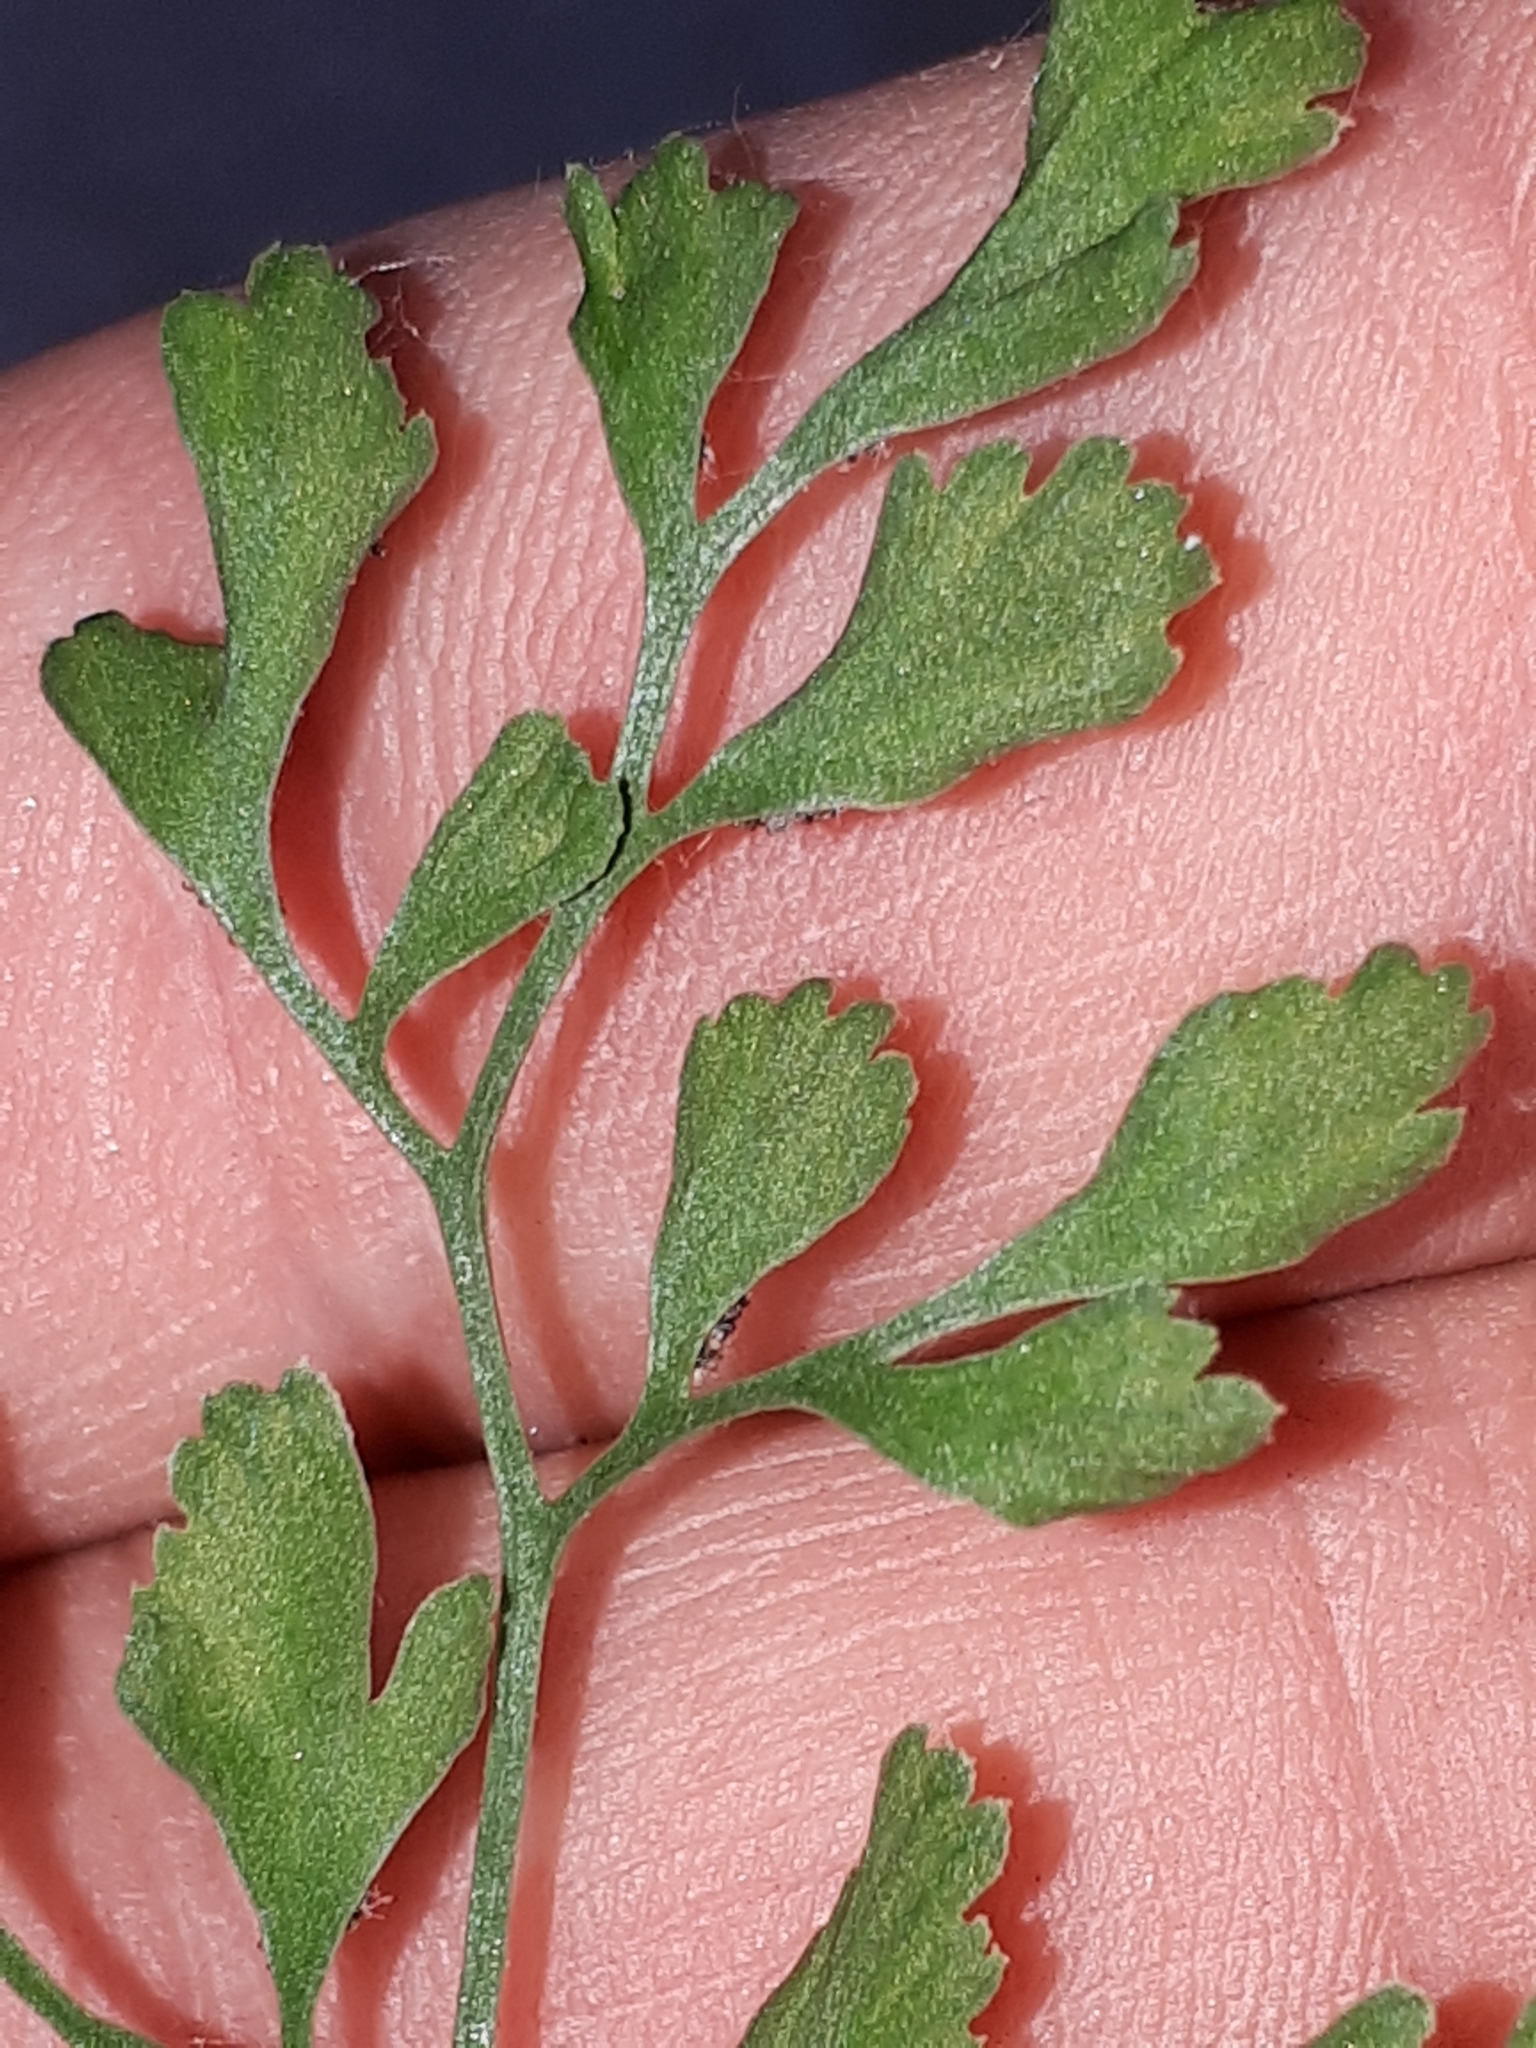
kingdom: Plantae
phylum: Tracheophyta
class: Polypodiopsida
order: Polypodiales
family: Aspleniaceae
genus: Asplenium
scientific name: Asplenium ruta-muraria
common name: Wall-rue
